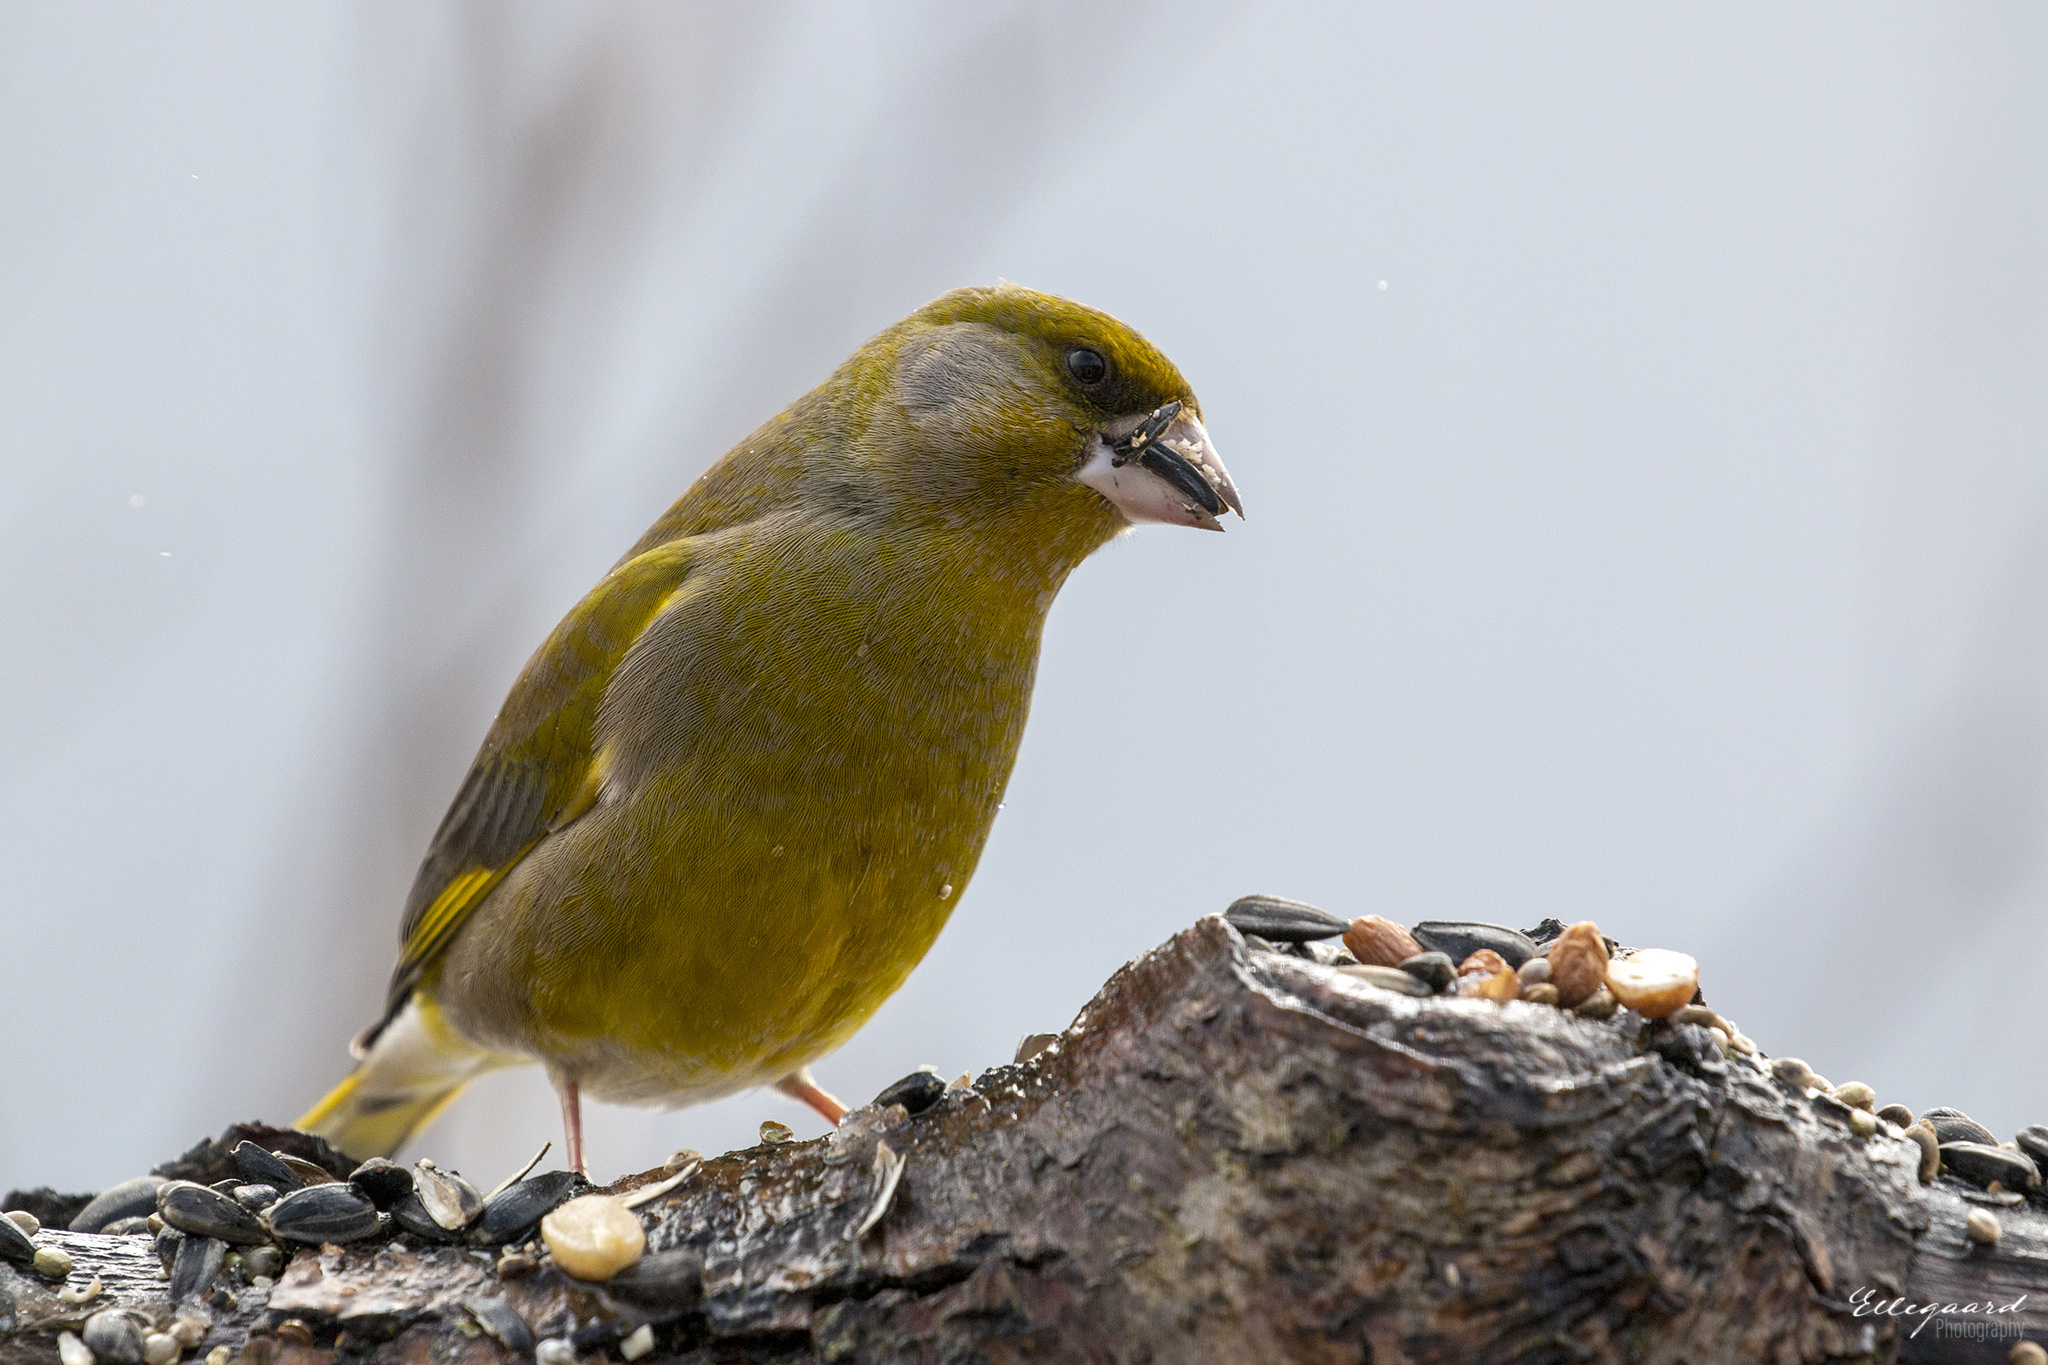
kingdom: Plantae
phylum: Tracheophyta
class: Liliopsida
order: Poales
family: Poaceae
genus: Chloris
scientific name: Chloris chloris
